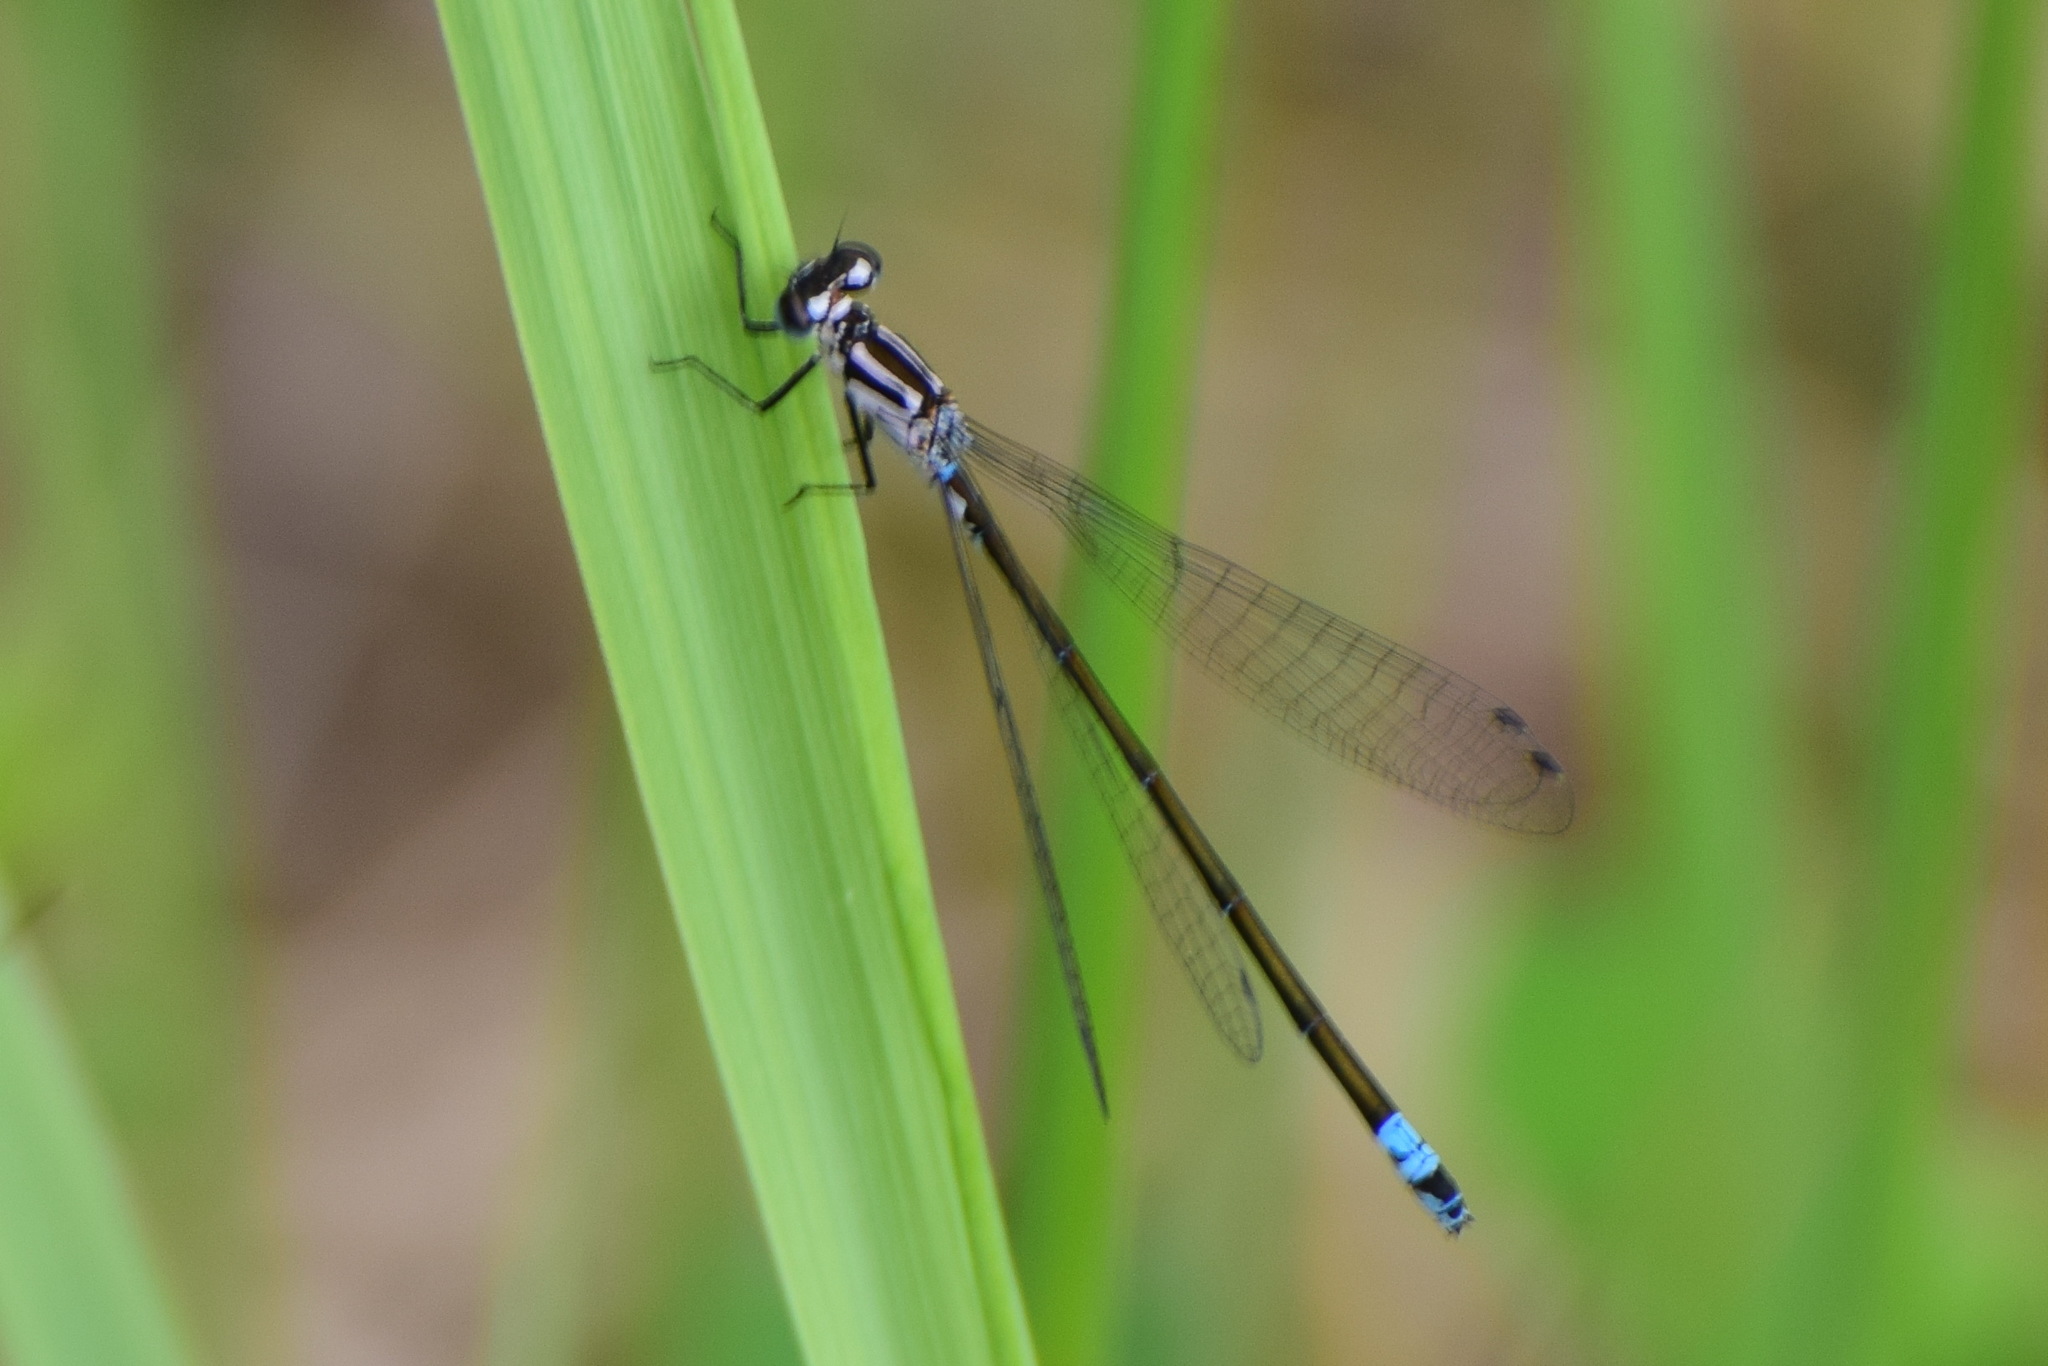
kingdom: Animalia
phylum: Arthropoda
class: Insecta
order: Odonata
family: Coenagrionidae
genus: Coenagrion
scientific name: Coenagrion pulchellum
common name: Variable bluet
